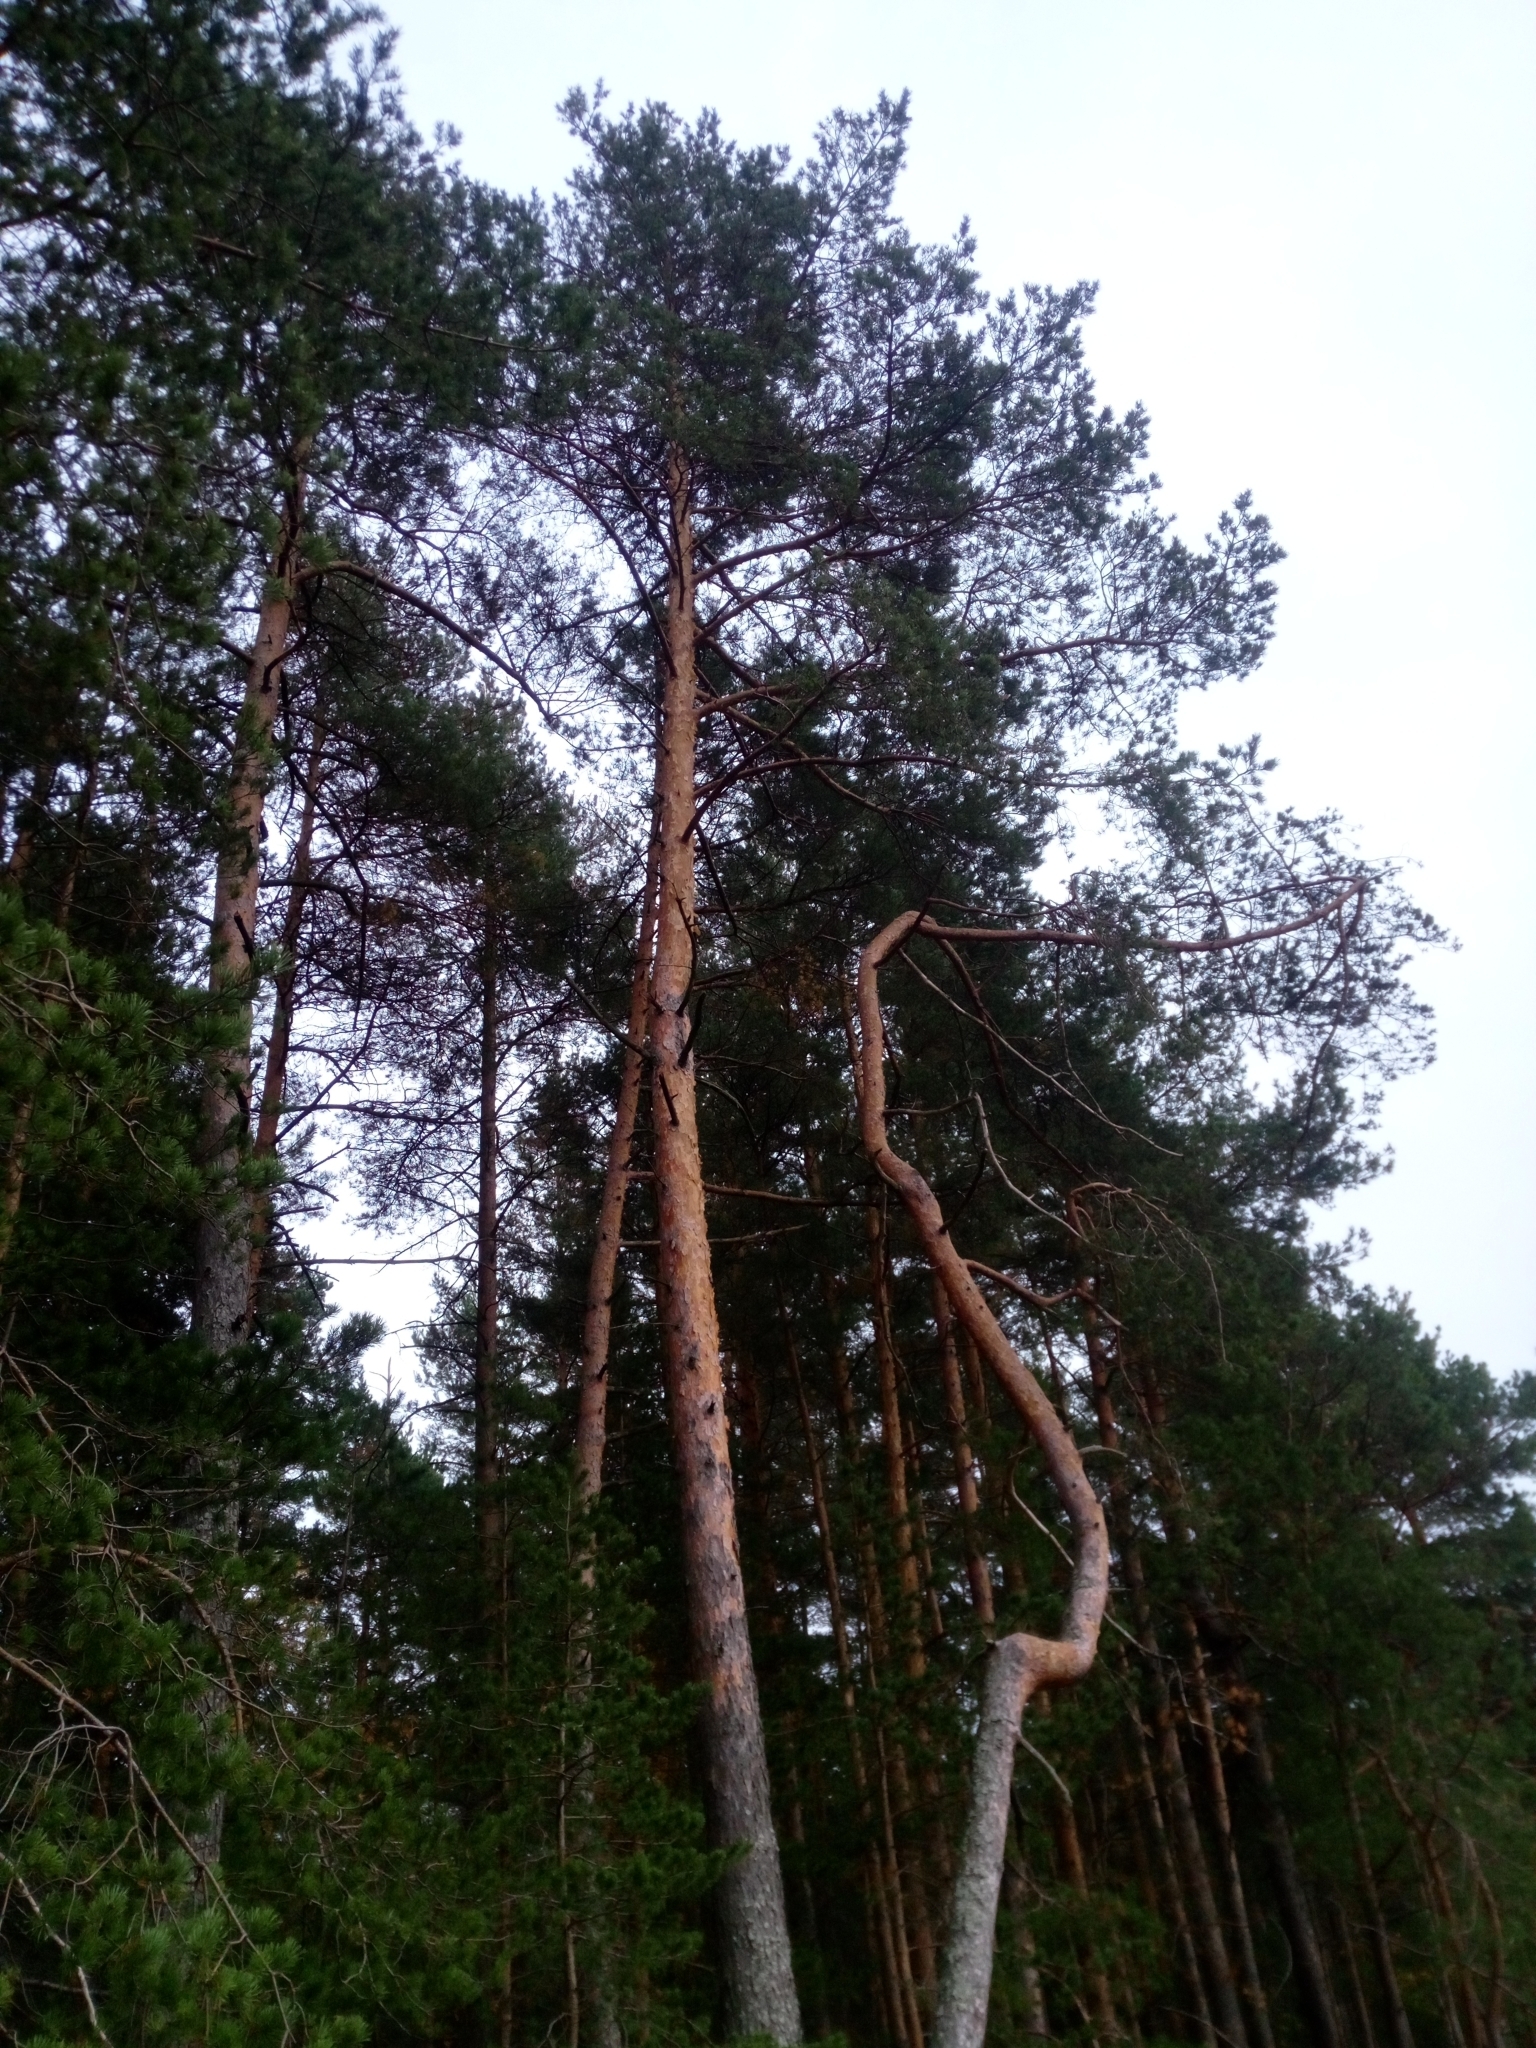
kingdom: Plantae
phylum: Tracheophyta
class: Pinopsida
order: Pinales
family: Pinaceae
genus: Pinus
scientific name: Pinus sylvestris
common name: Scots pine
